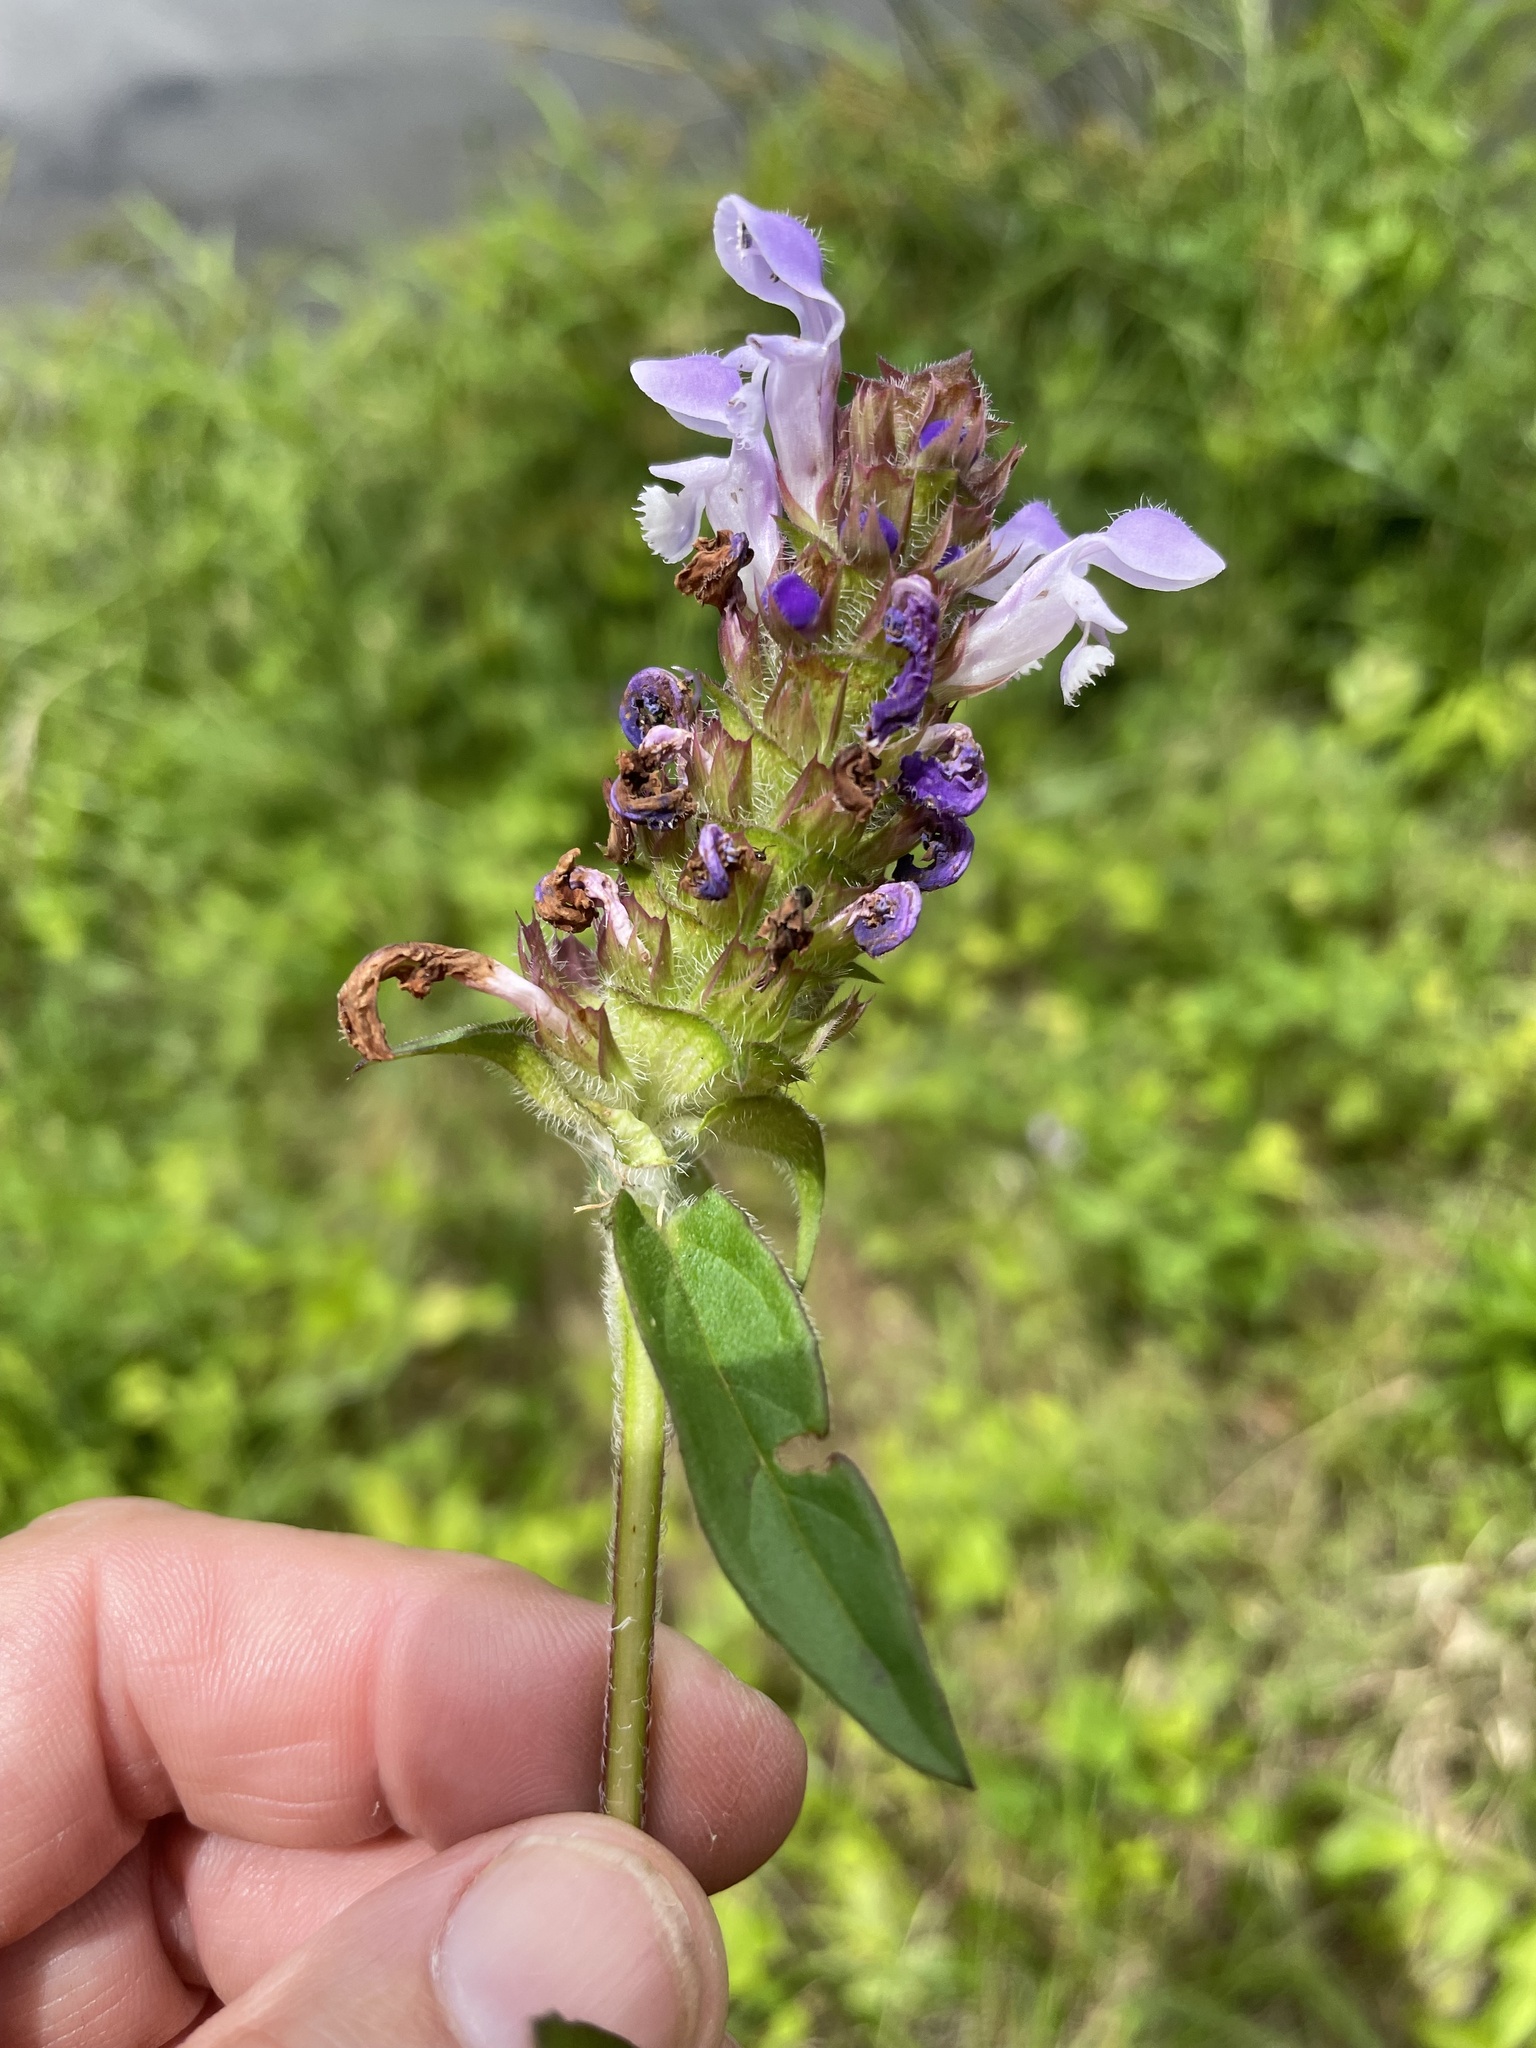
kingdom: Plantae
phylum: Tracheophyta
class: Magnoliopsida
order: Lamiales
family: Lamiaceae
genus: Prunella
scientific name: Prunella vulgaris
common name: Heal-all
